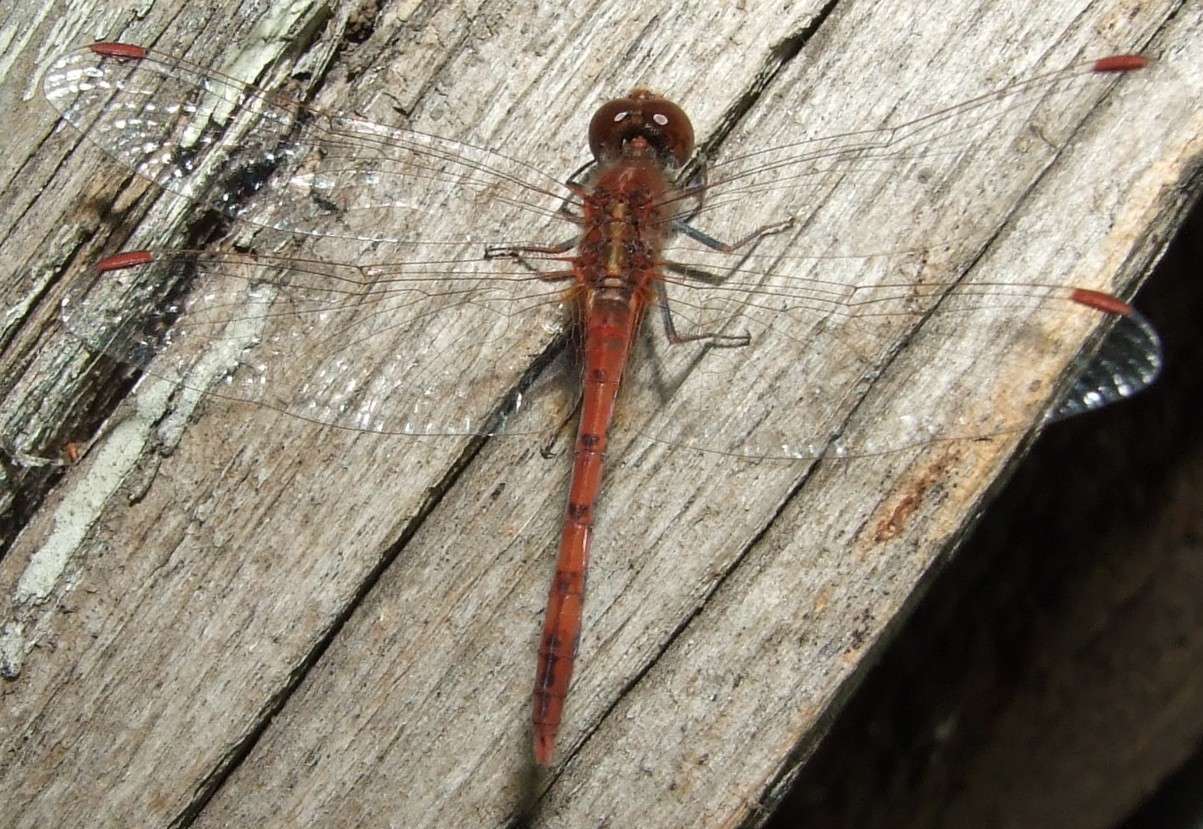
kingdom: Animalia
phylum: Arthropoda
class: Insecta
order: Odonata
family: Libellulidae
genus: Diplacodes
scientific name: Diplacodes bipunctata
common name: Red percher dragonfly
